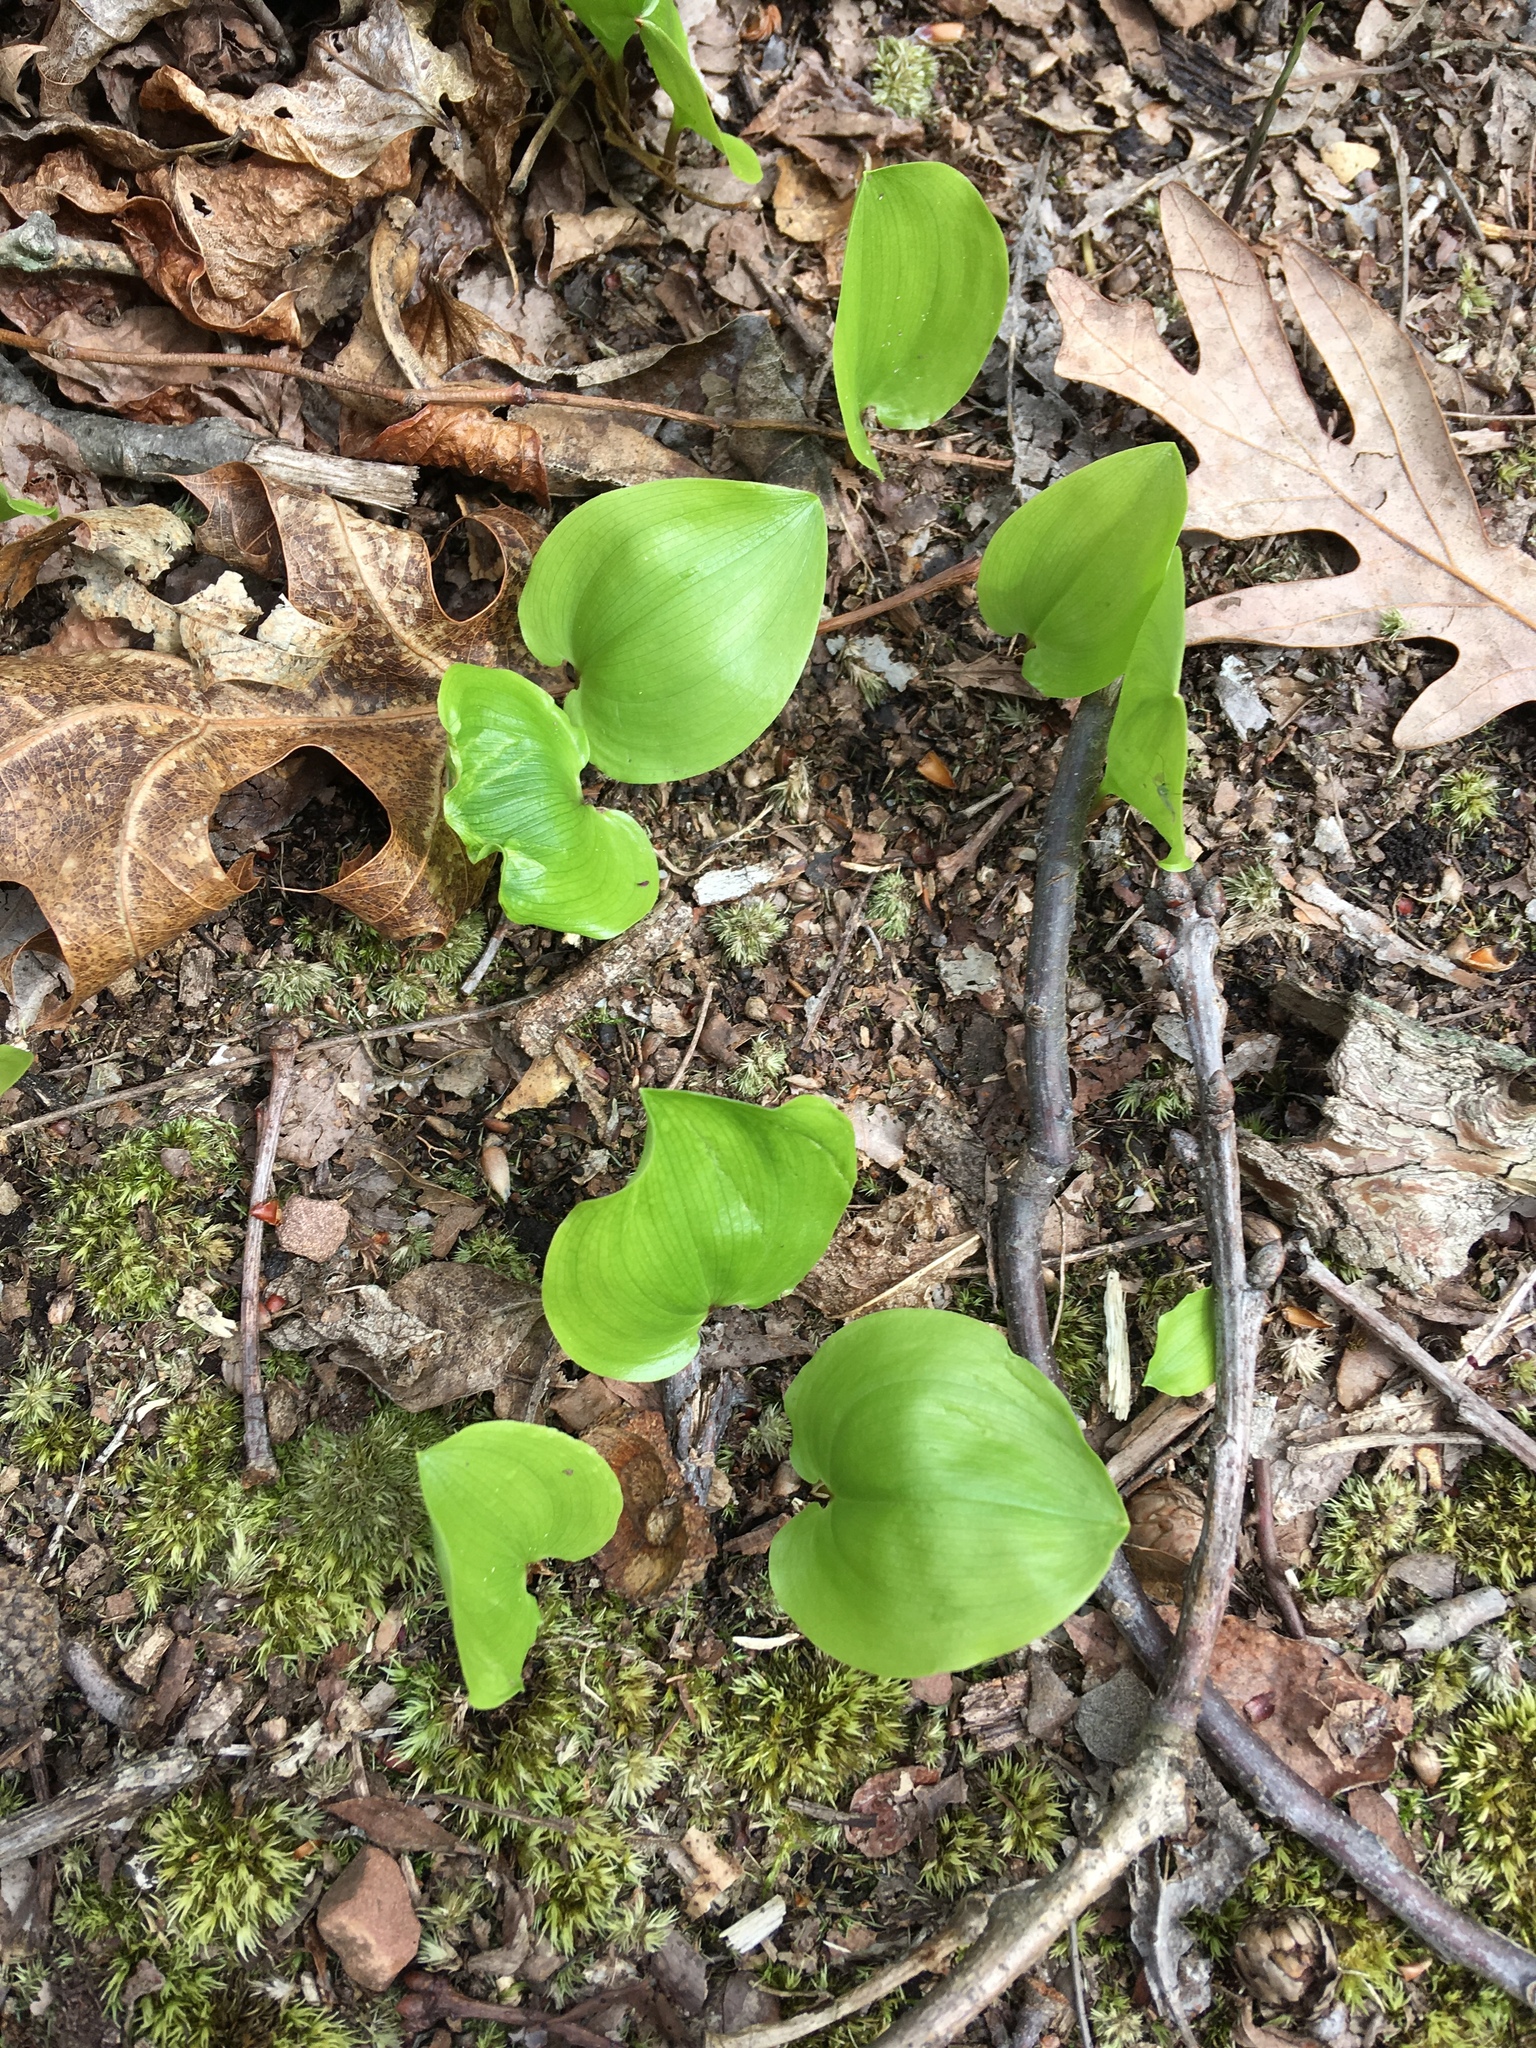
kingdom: Plantae
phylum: Tracheophyta
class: Liliopsida
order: Asparagales
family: Asparagaceae
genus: Maianthemum
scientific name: Maianthemum canadense
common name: False lily-of-the-valley
